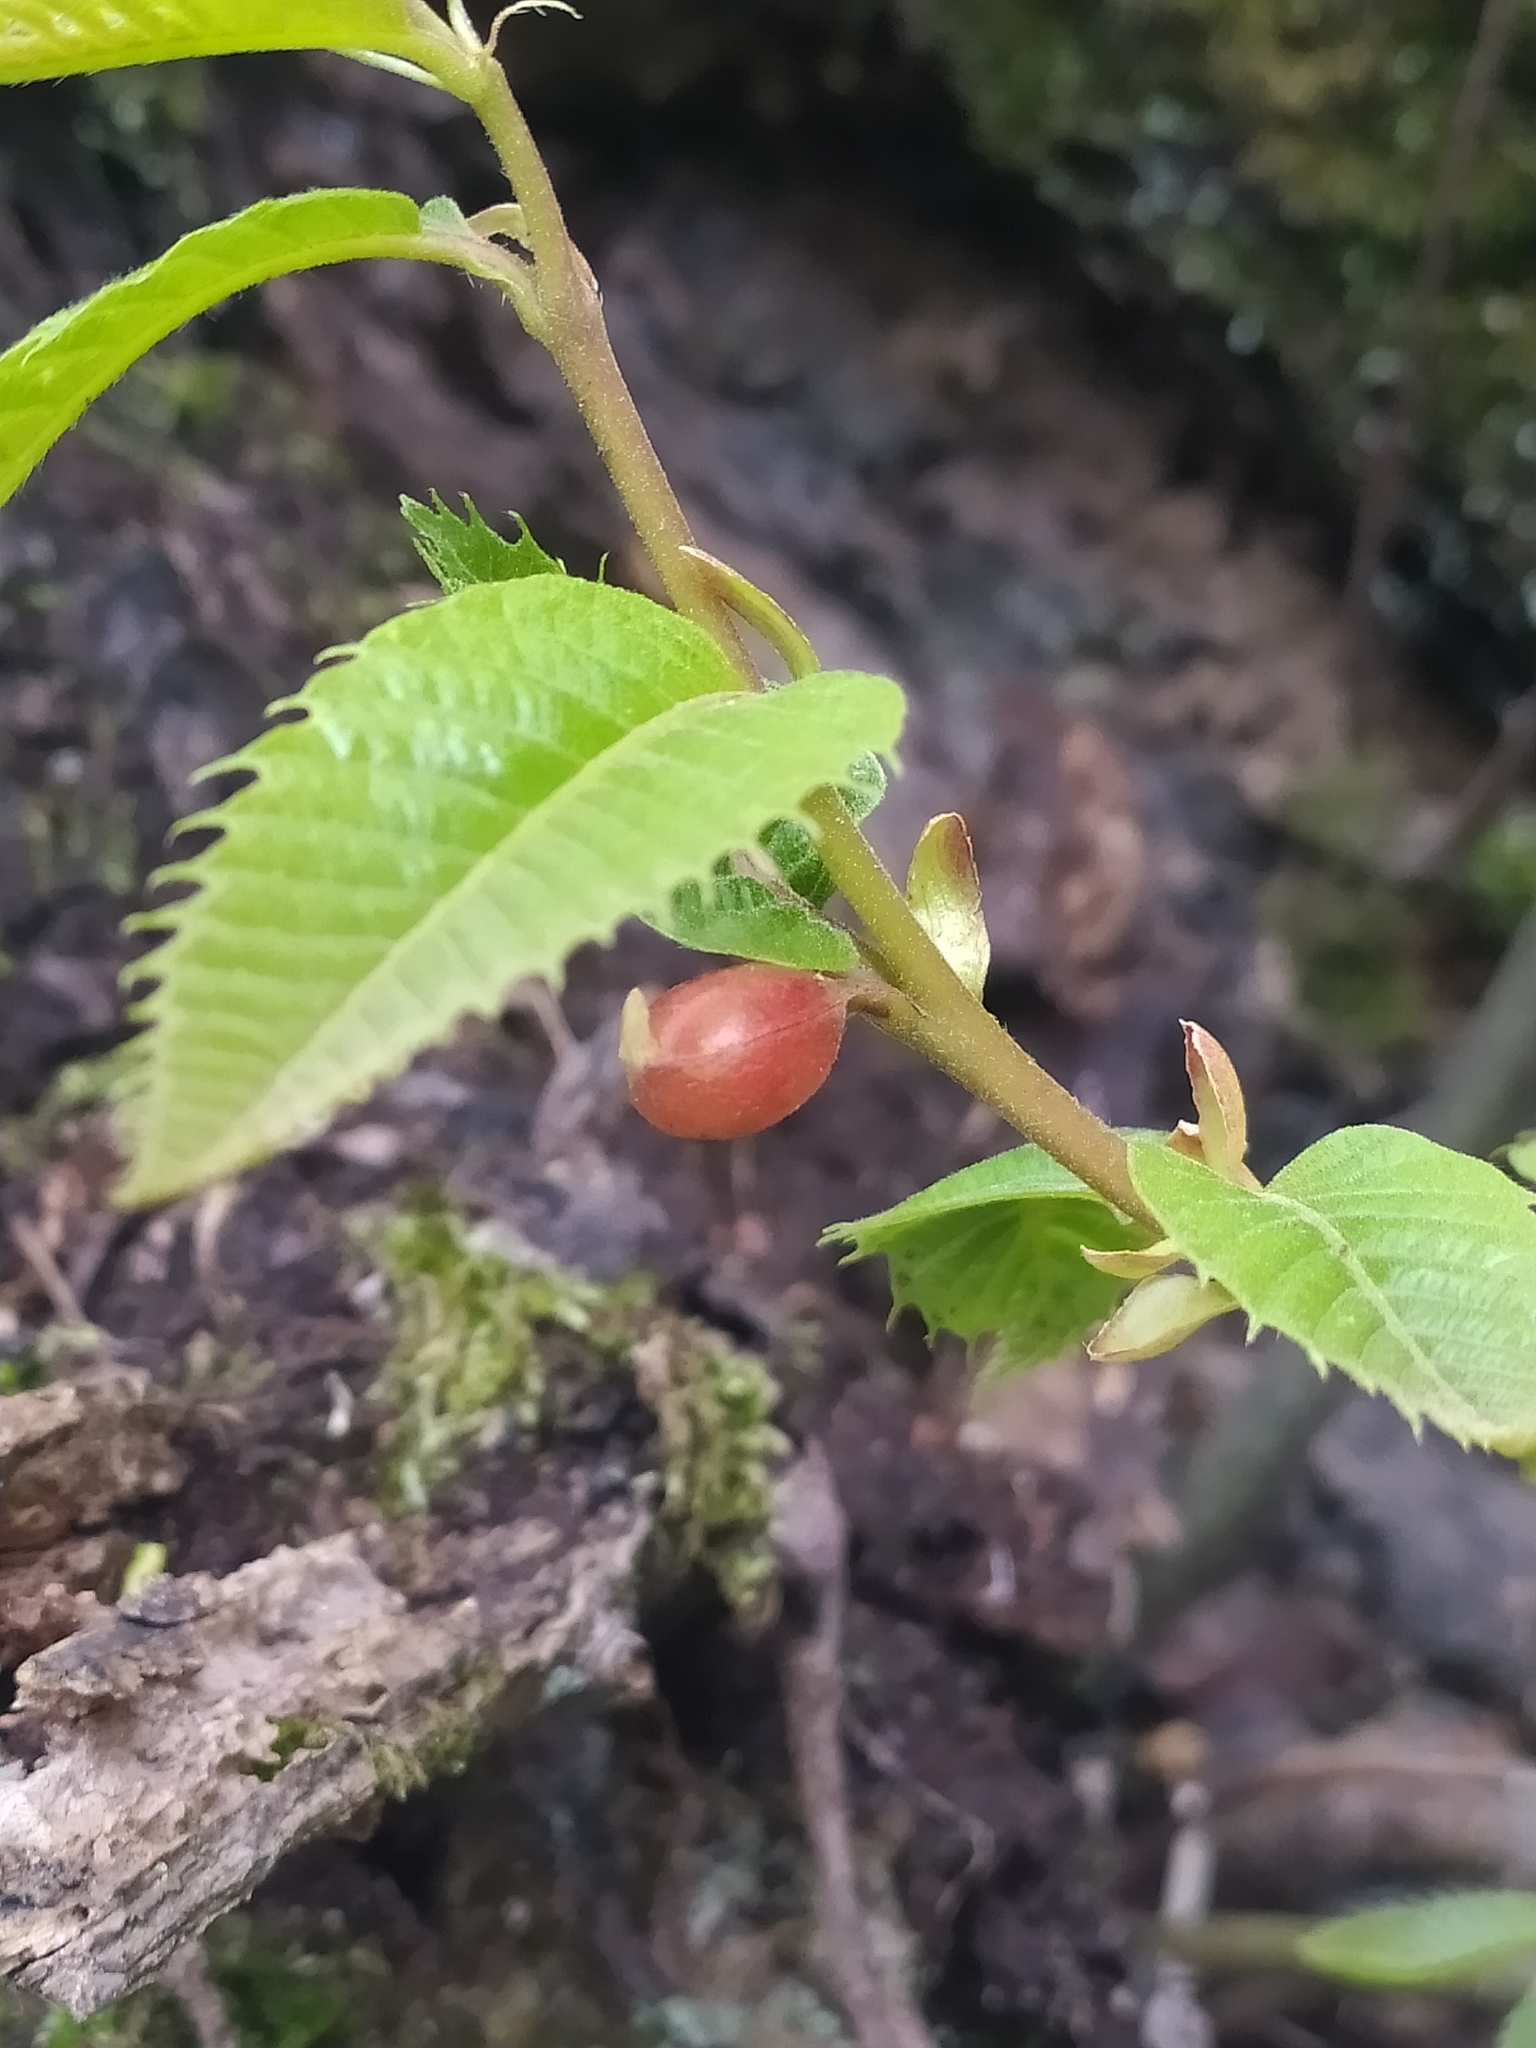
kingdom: Animalia
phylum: Arthropoda
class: Insecta
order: Hymenoptera
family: Cynipidae
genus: Dryocosmus
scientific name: Dryocosmus kuriphilus
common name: Asian chestnut gall wasp
